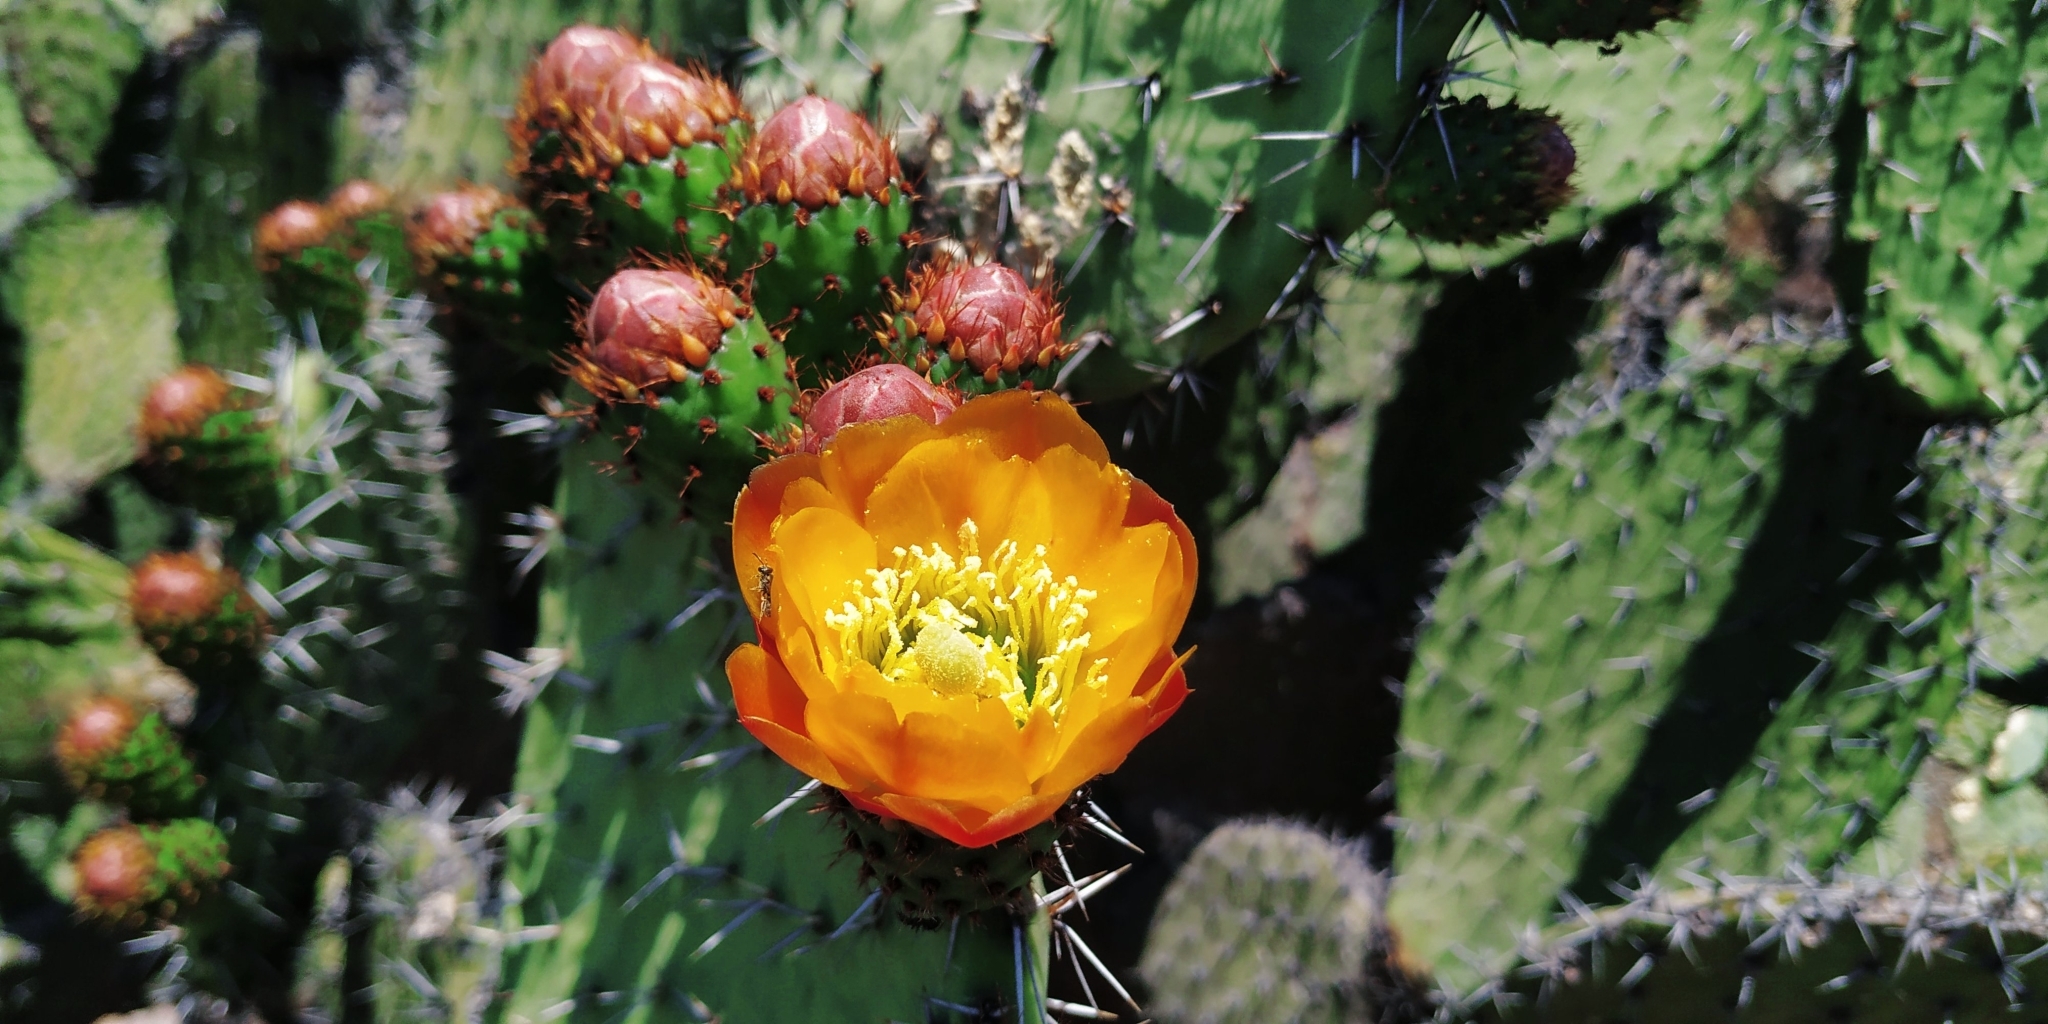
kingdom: Plantae
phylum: Tracheophyta
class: Magnoliopsida
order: Caryophyllales
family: Cactaceae
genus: Opuntia
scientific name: Opuntia streptacantha
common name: Gracemere-pear
